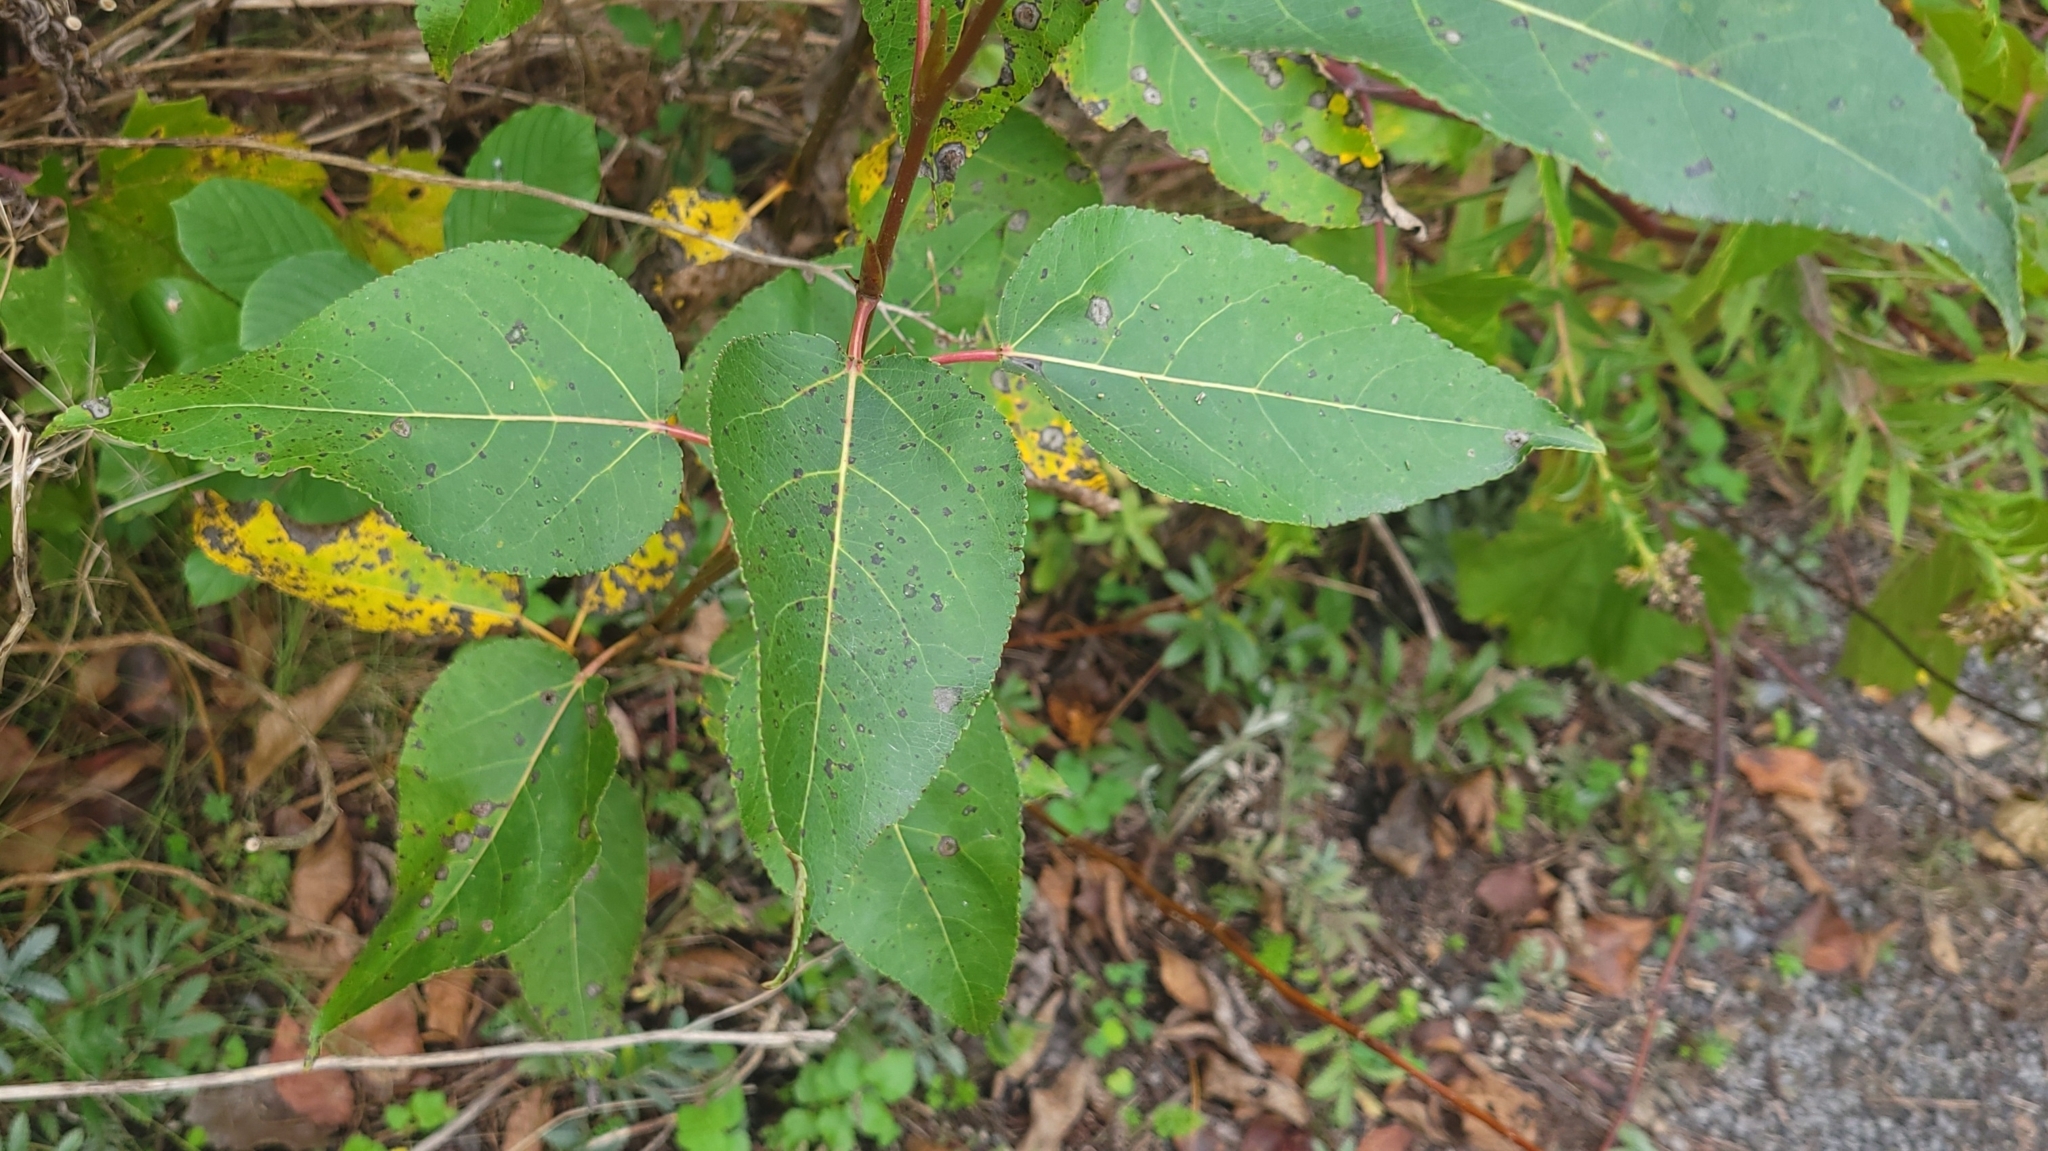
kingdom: Plantae
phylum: Tracheophyta
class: Magnoliopsida
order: Malpighiales
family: Salicaceae
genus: Populus
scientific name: Populus balsamifera
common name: Balsam poplar
